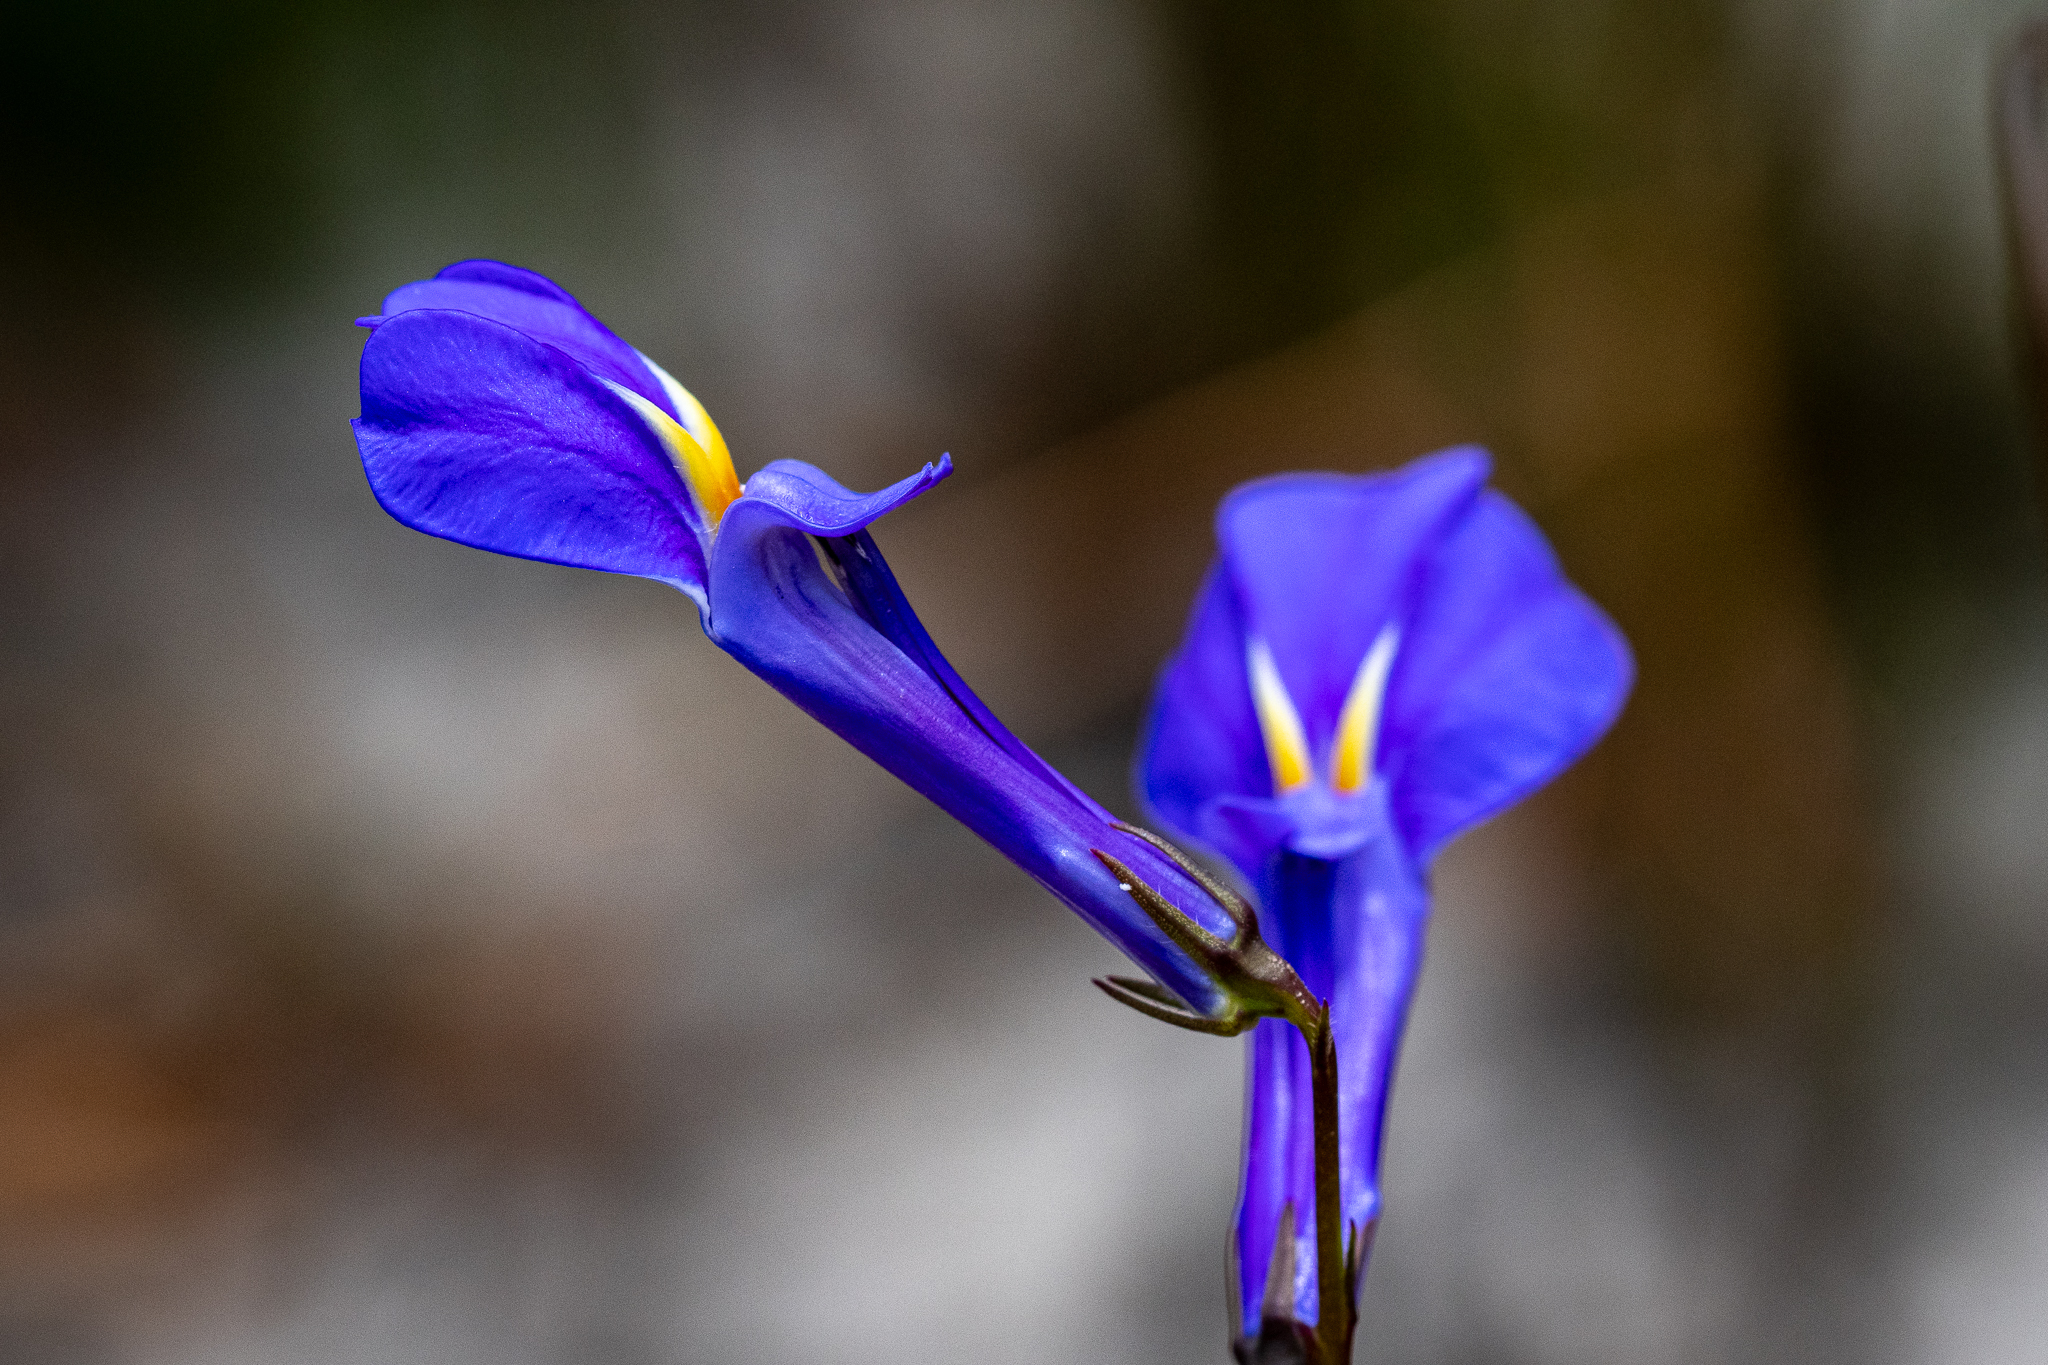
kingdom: Plantae
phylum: Tracheophyta
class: Magnoliopsida
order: Asterales
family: Campanulaceae
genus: Lobelia
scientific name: Lobelia coronopifolia
